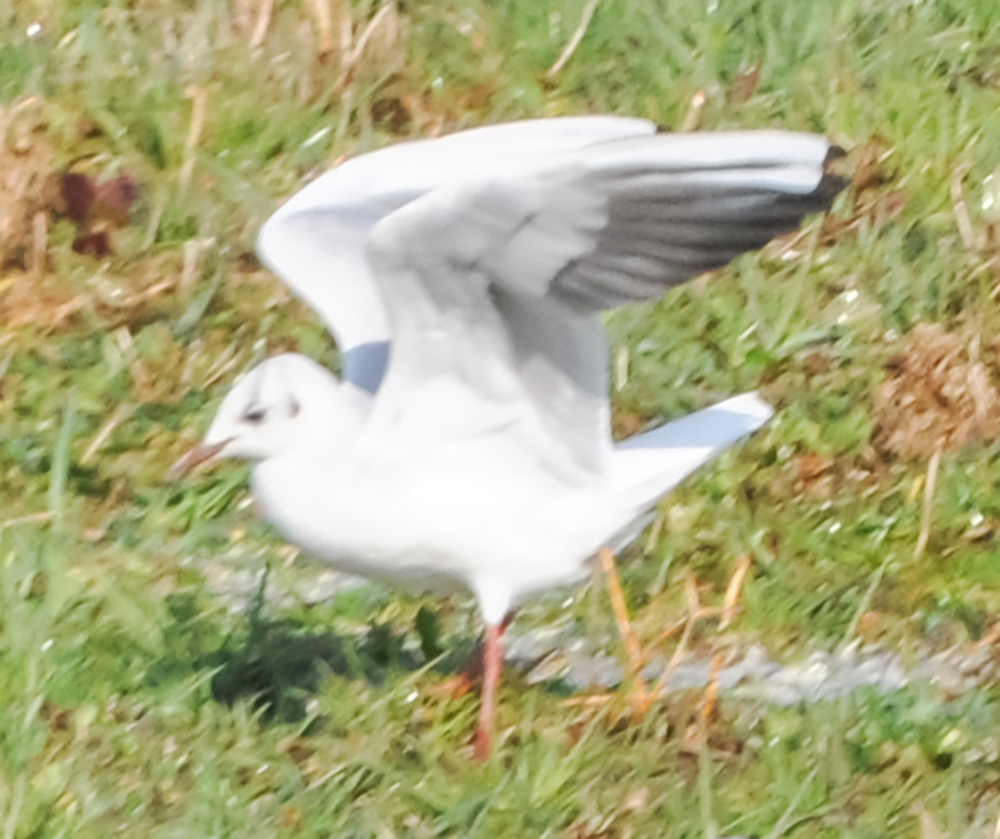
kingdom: Animalia
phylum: Chordata
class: Aves
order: Charadriiformes
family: Laridae
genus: Chroicocephalus
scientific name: Chroicocephalus ridibundus
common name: Black-headed gull
